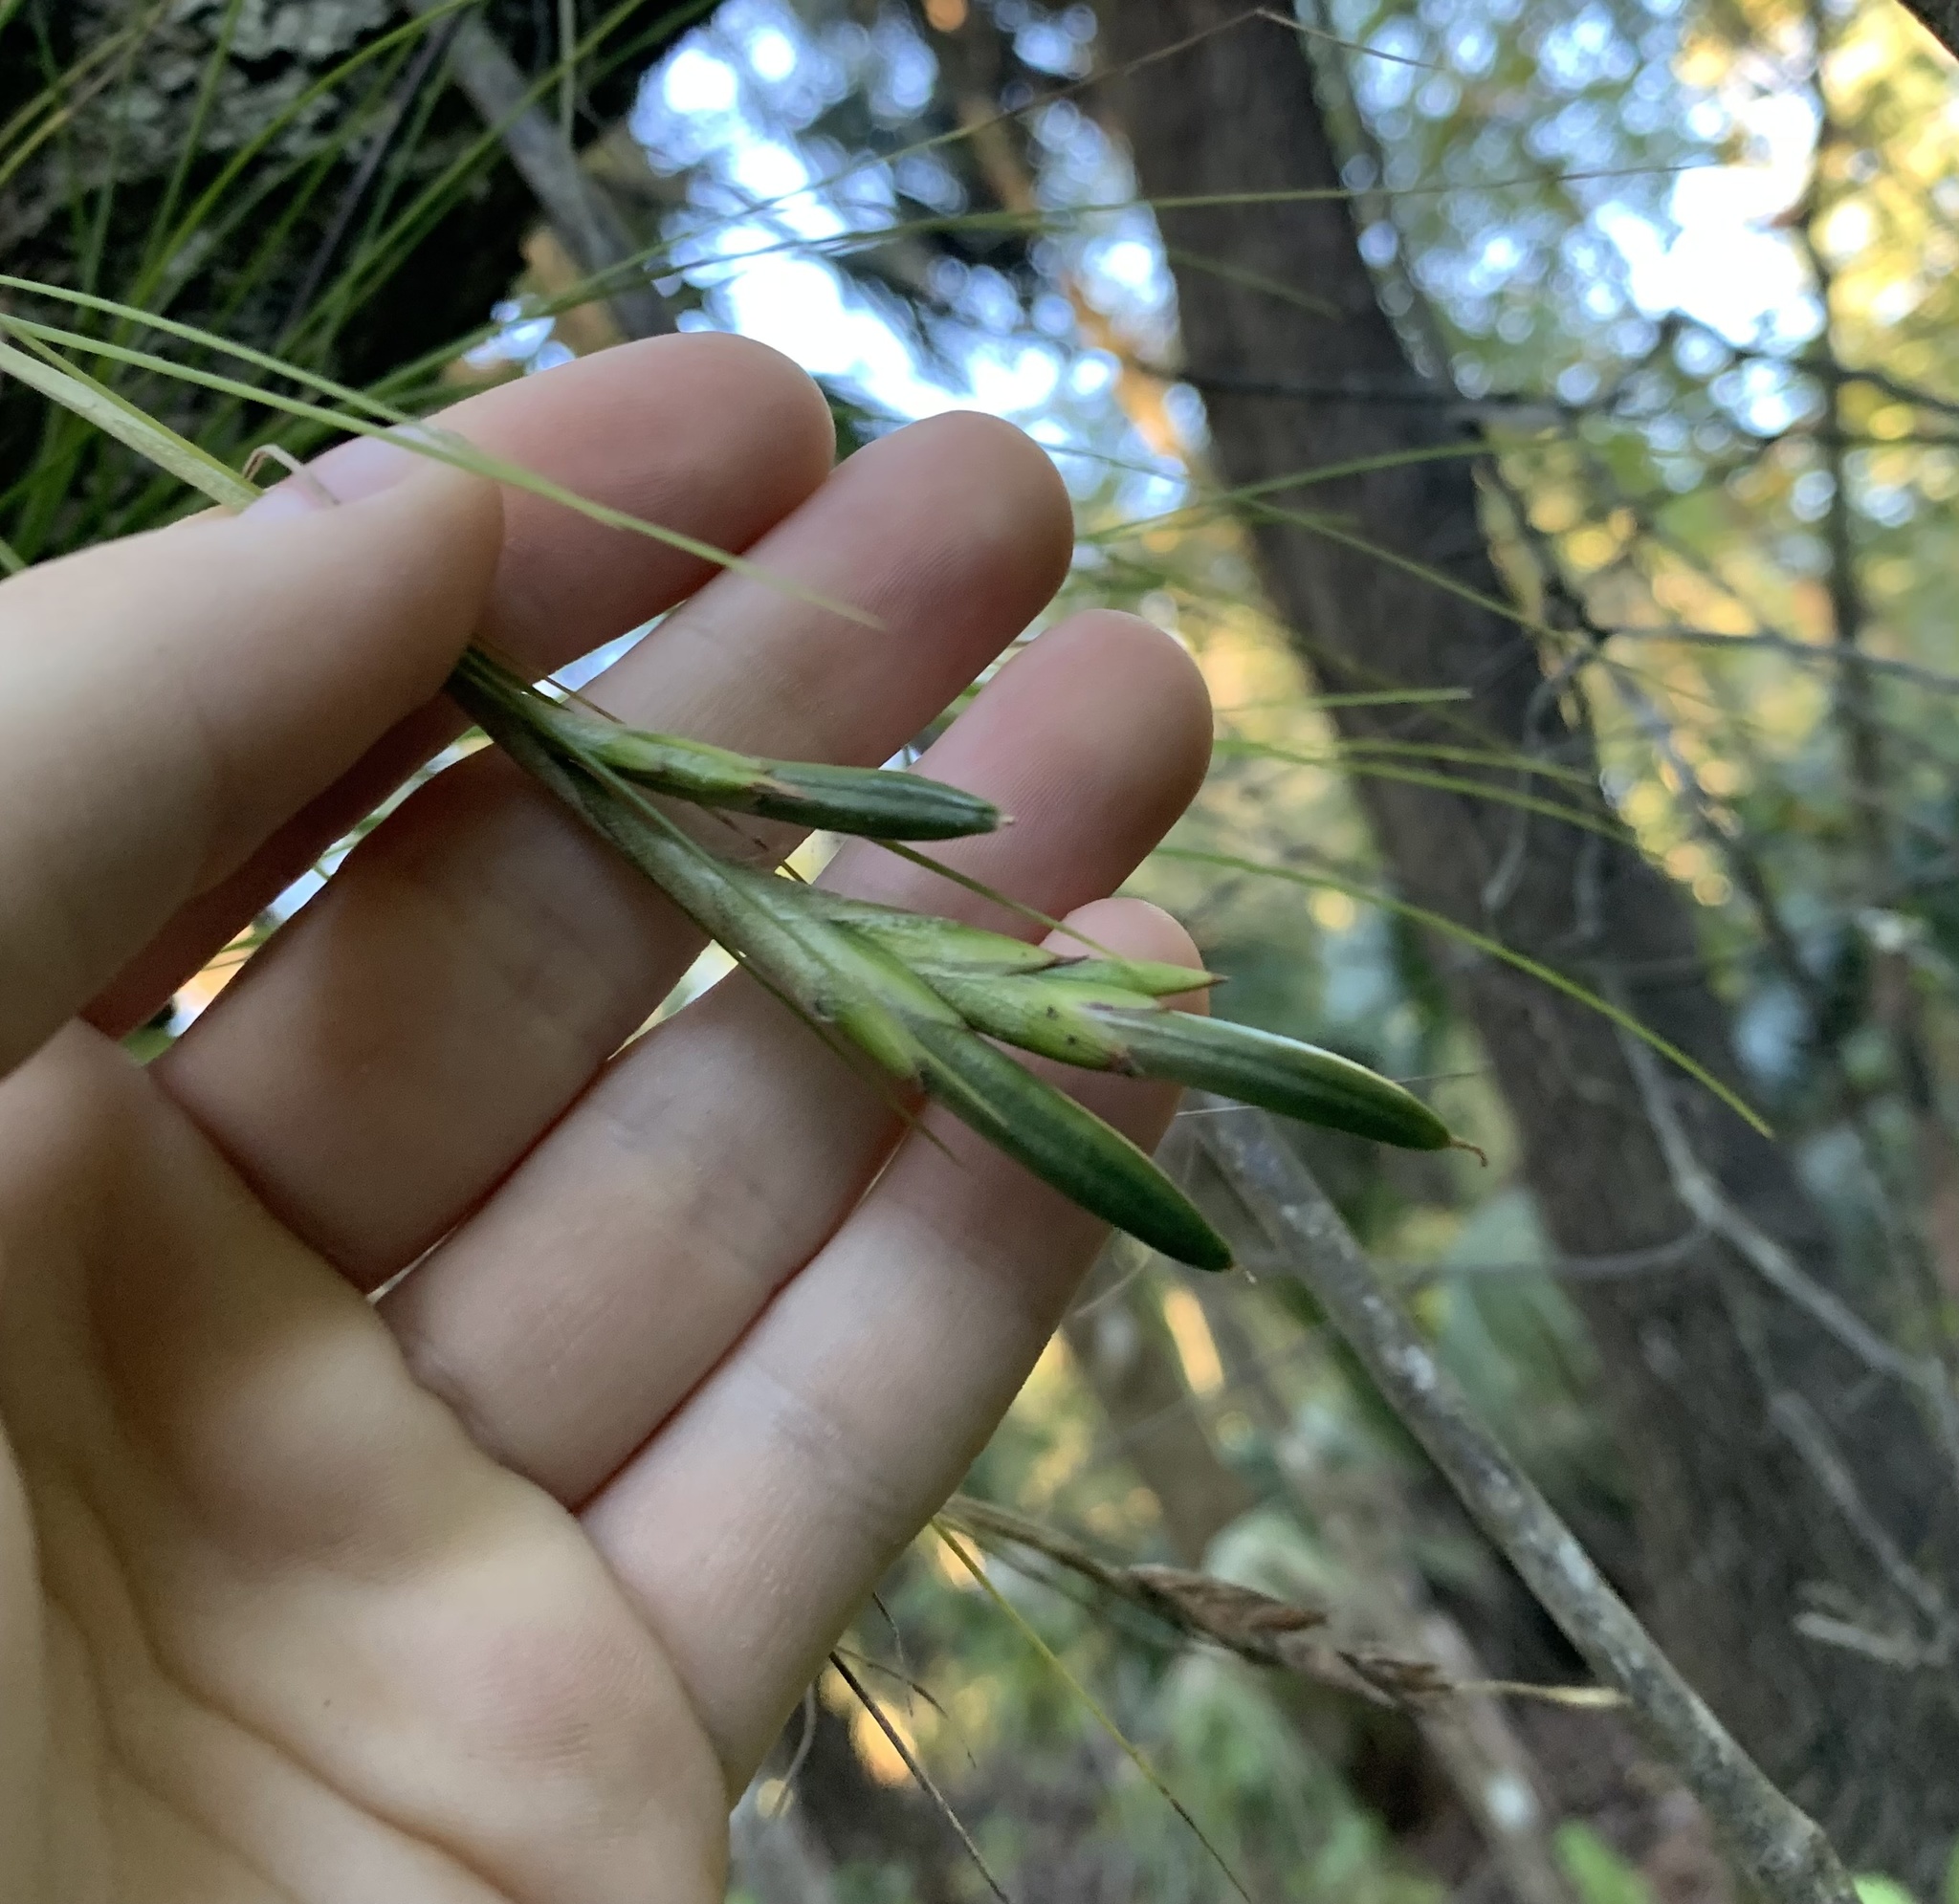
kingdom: Plantae
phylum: Tracheophyta
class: Liliopsida
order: Poales
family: Bromeliaceae
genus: Tillandsia
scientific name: Tillandsia setacea
